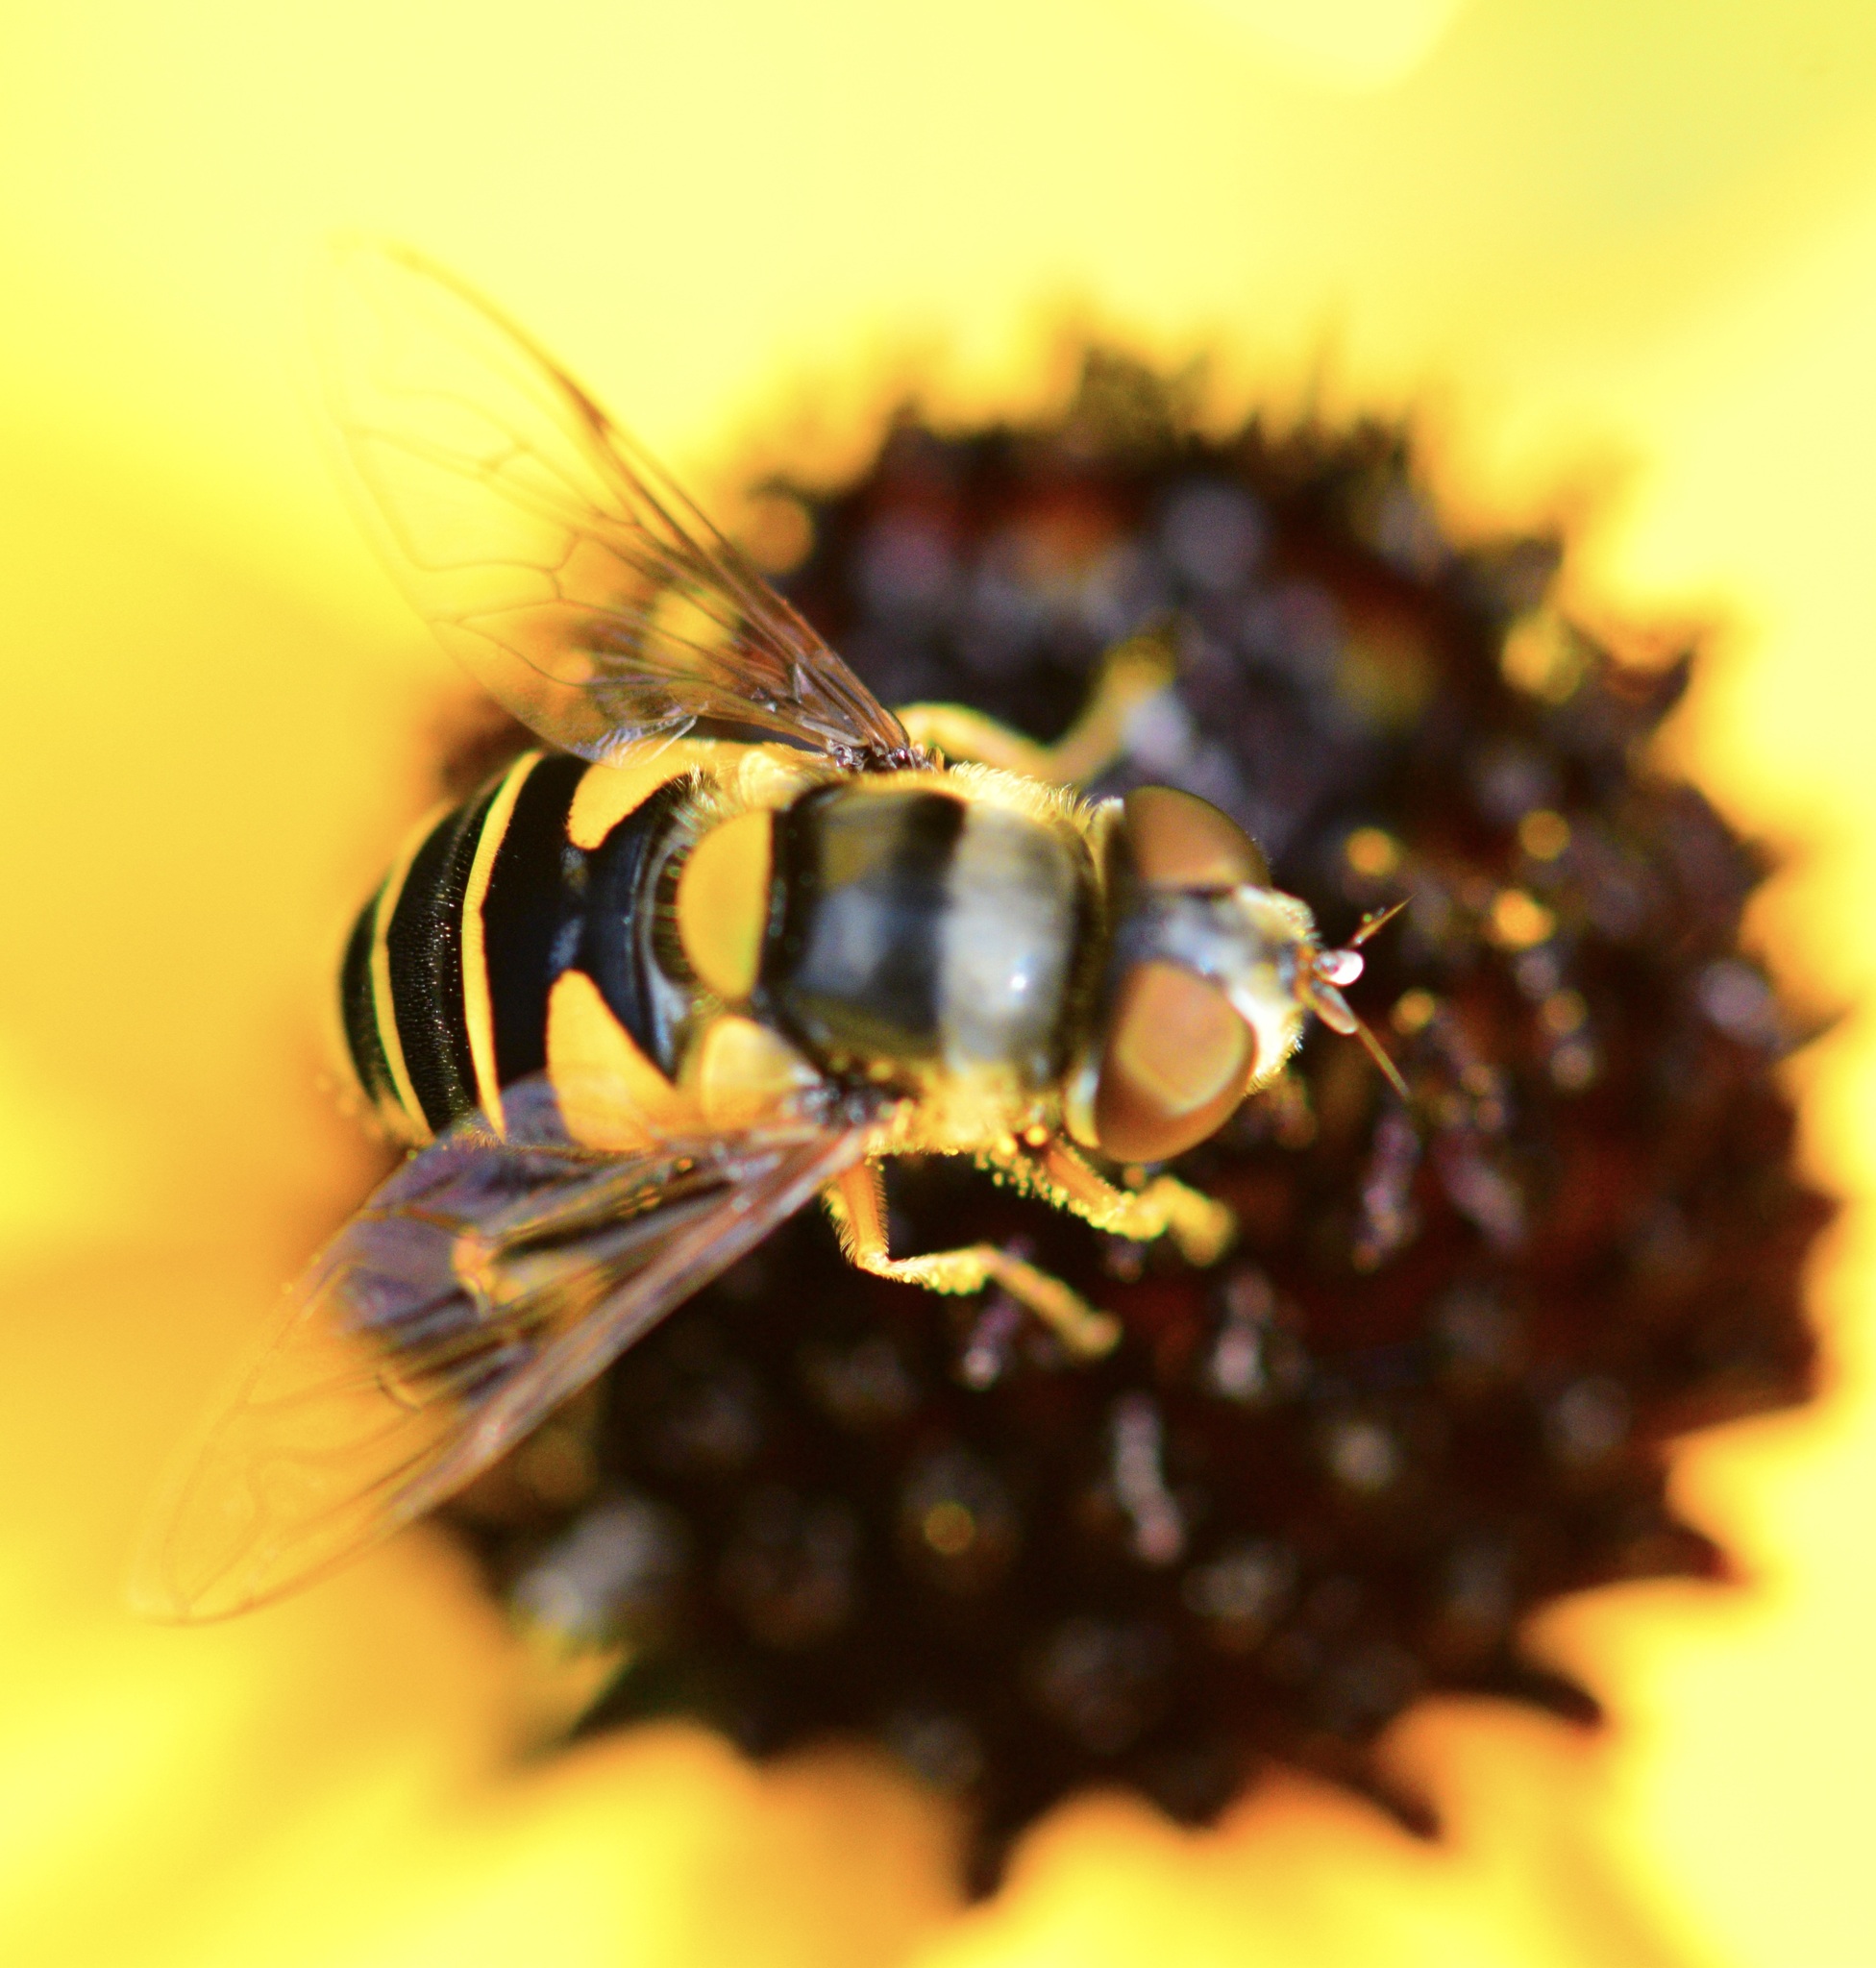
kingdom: Animalia
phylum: Arthropoda
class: Insecta
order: Diptera
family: Syrphidae
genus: Eristalis
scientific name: Eristalis transversa
